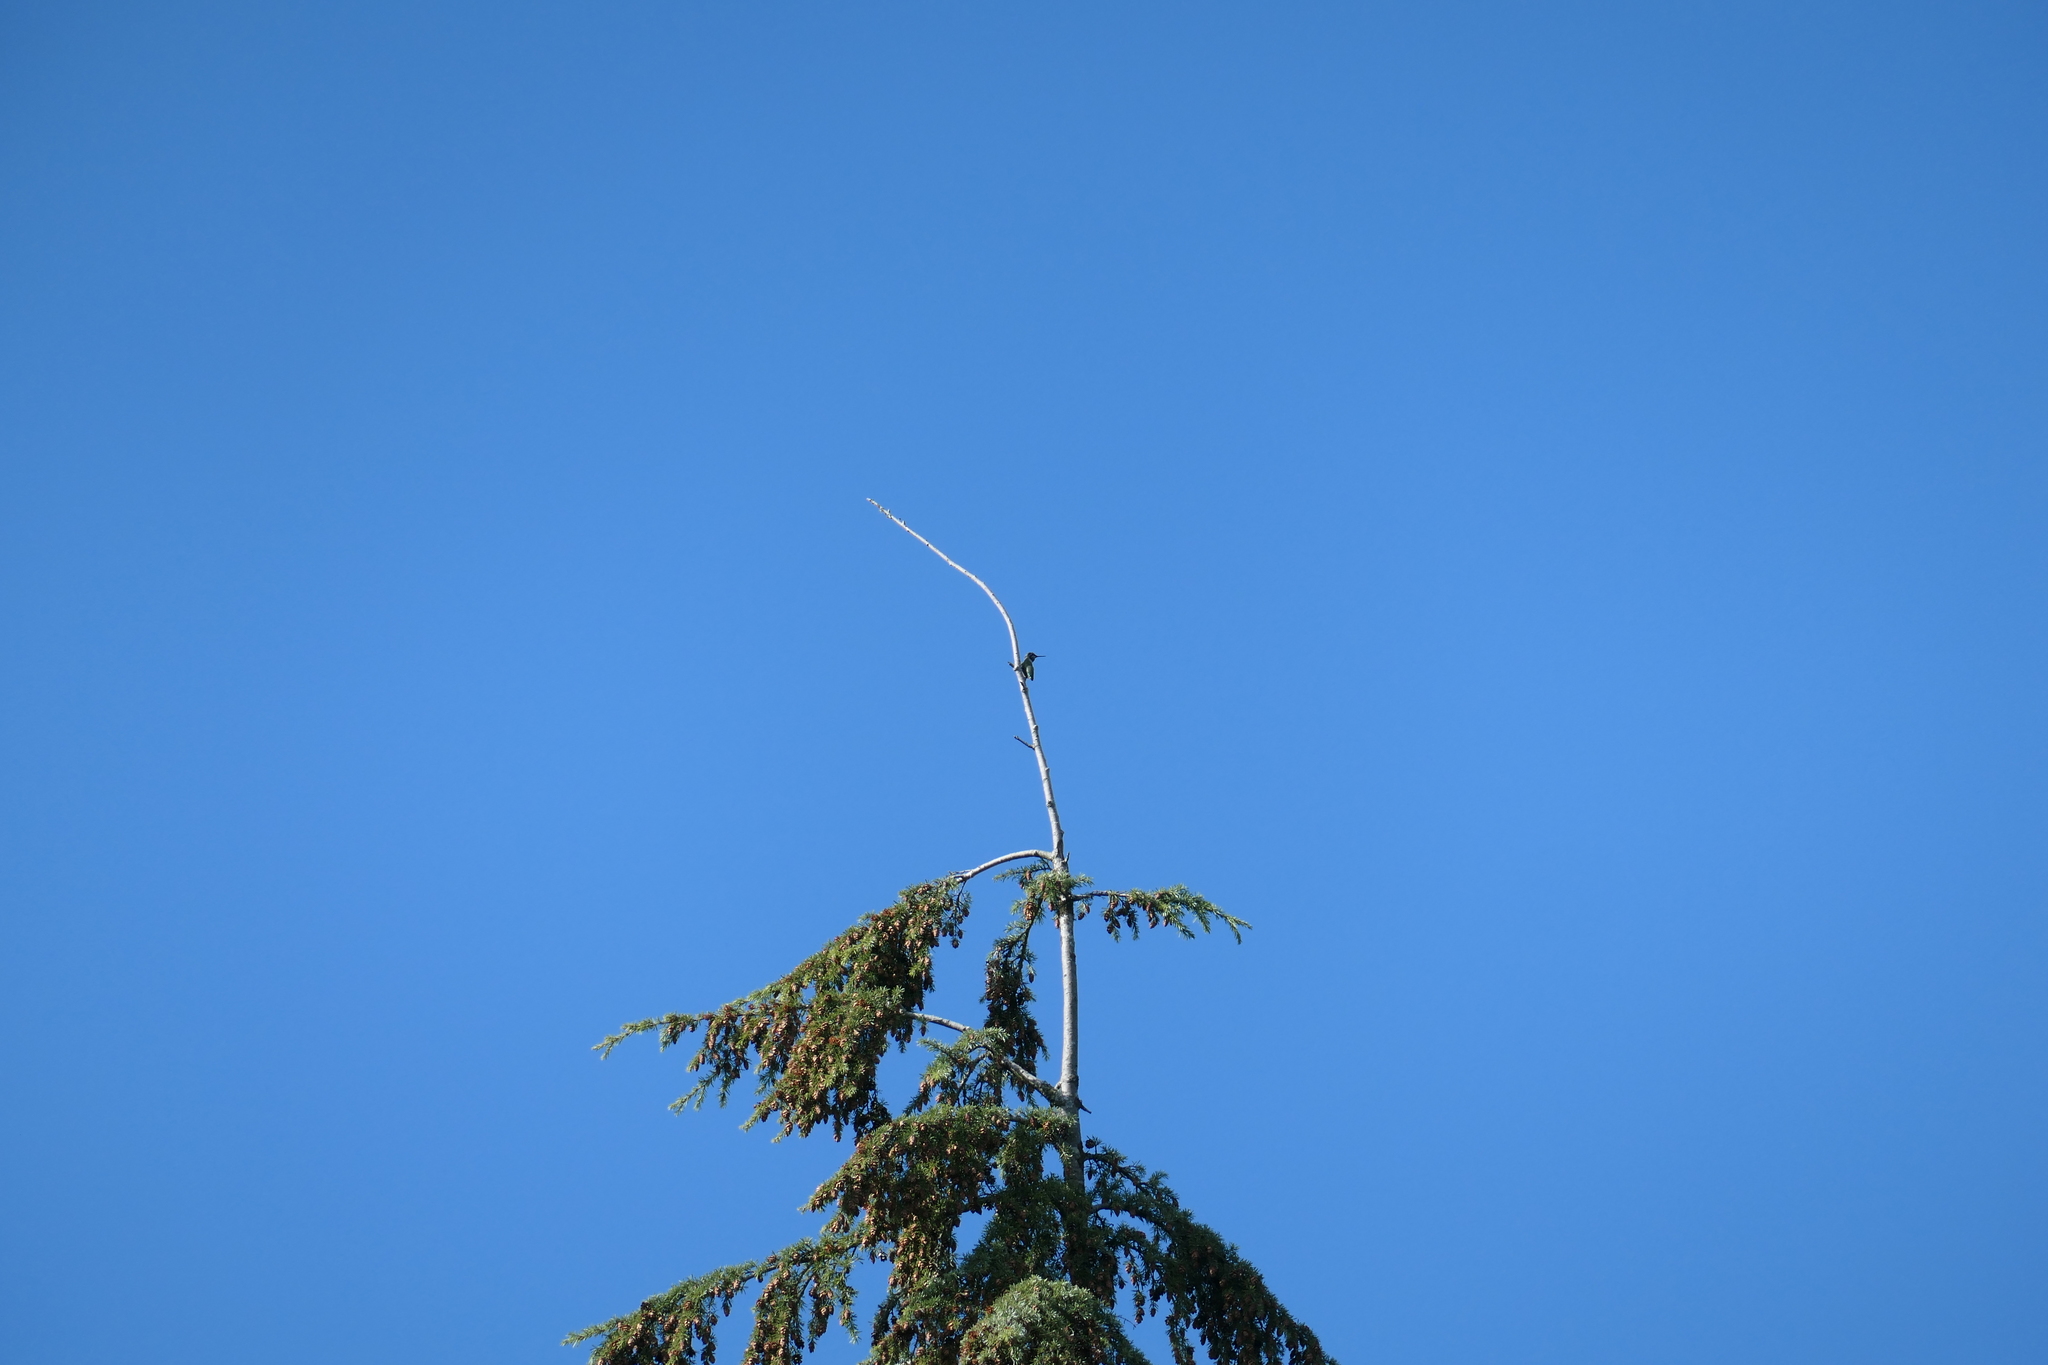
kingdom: Animalia
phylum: Chordata
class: Aves
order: Apodiformes
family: Trochilidae
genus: Calypte
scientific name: Calypte anna
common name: Anna's hummingbird
